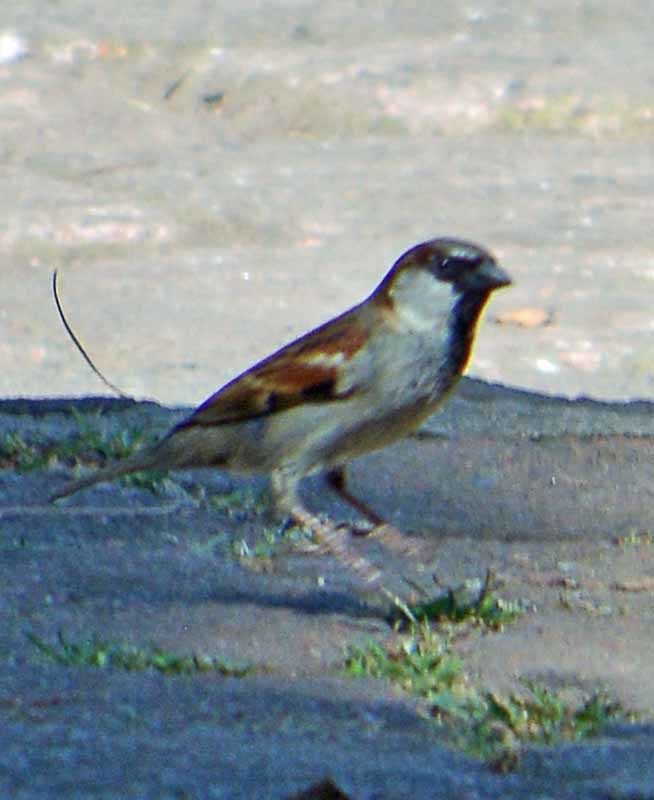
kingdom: Animalia
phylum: Chordata
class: Aves
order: Passeriformes
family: Passeridae
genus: Passer
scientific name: Passer domesticus
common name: House sparrow
